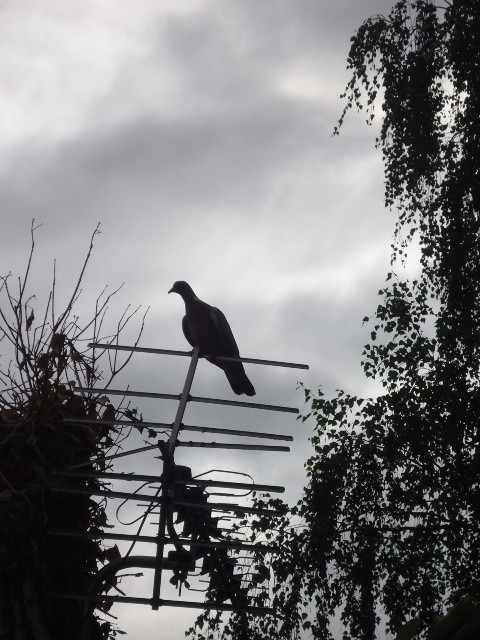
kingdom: Animalia
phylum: Chordata
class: Aves
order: Columbiformes
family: Columbidae
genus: Columba
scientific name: Columba palumbus
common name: Common wood pigeon
